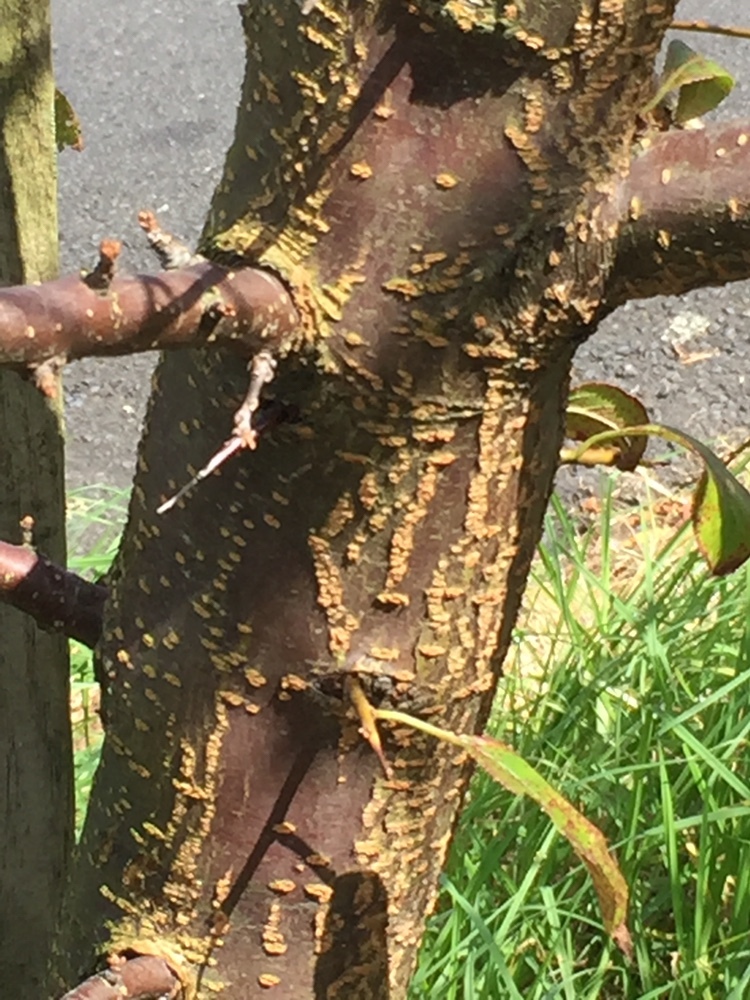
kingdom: Fungi
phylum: Basidiomycota
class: Pucciniomycetes
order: Pucciniales
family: Tranzscheliaceae
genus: Tranzschelia
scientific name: Tranzschelia discolor
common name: Plum rust
